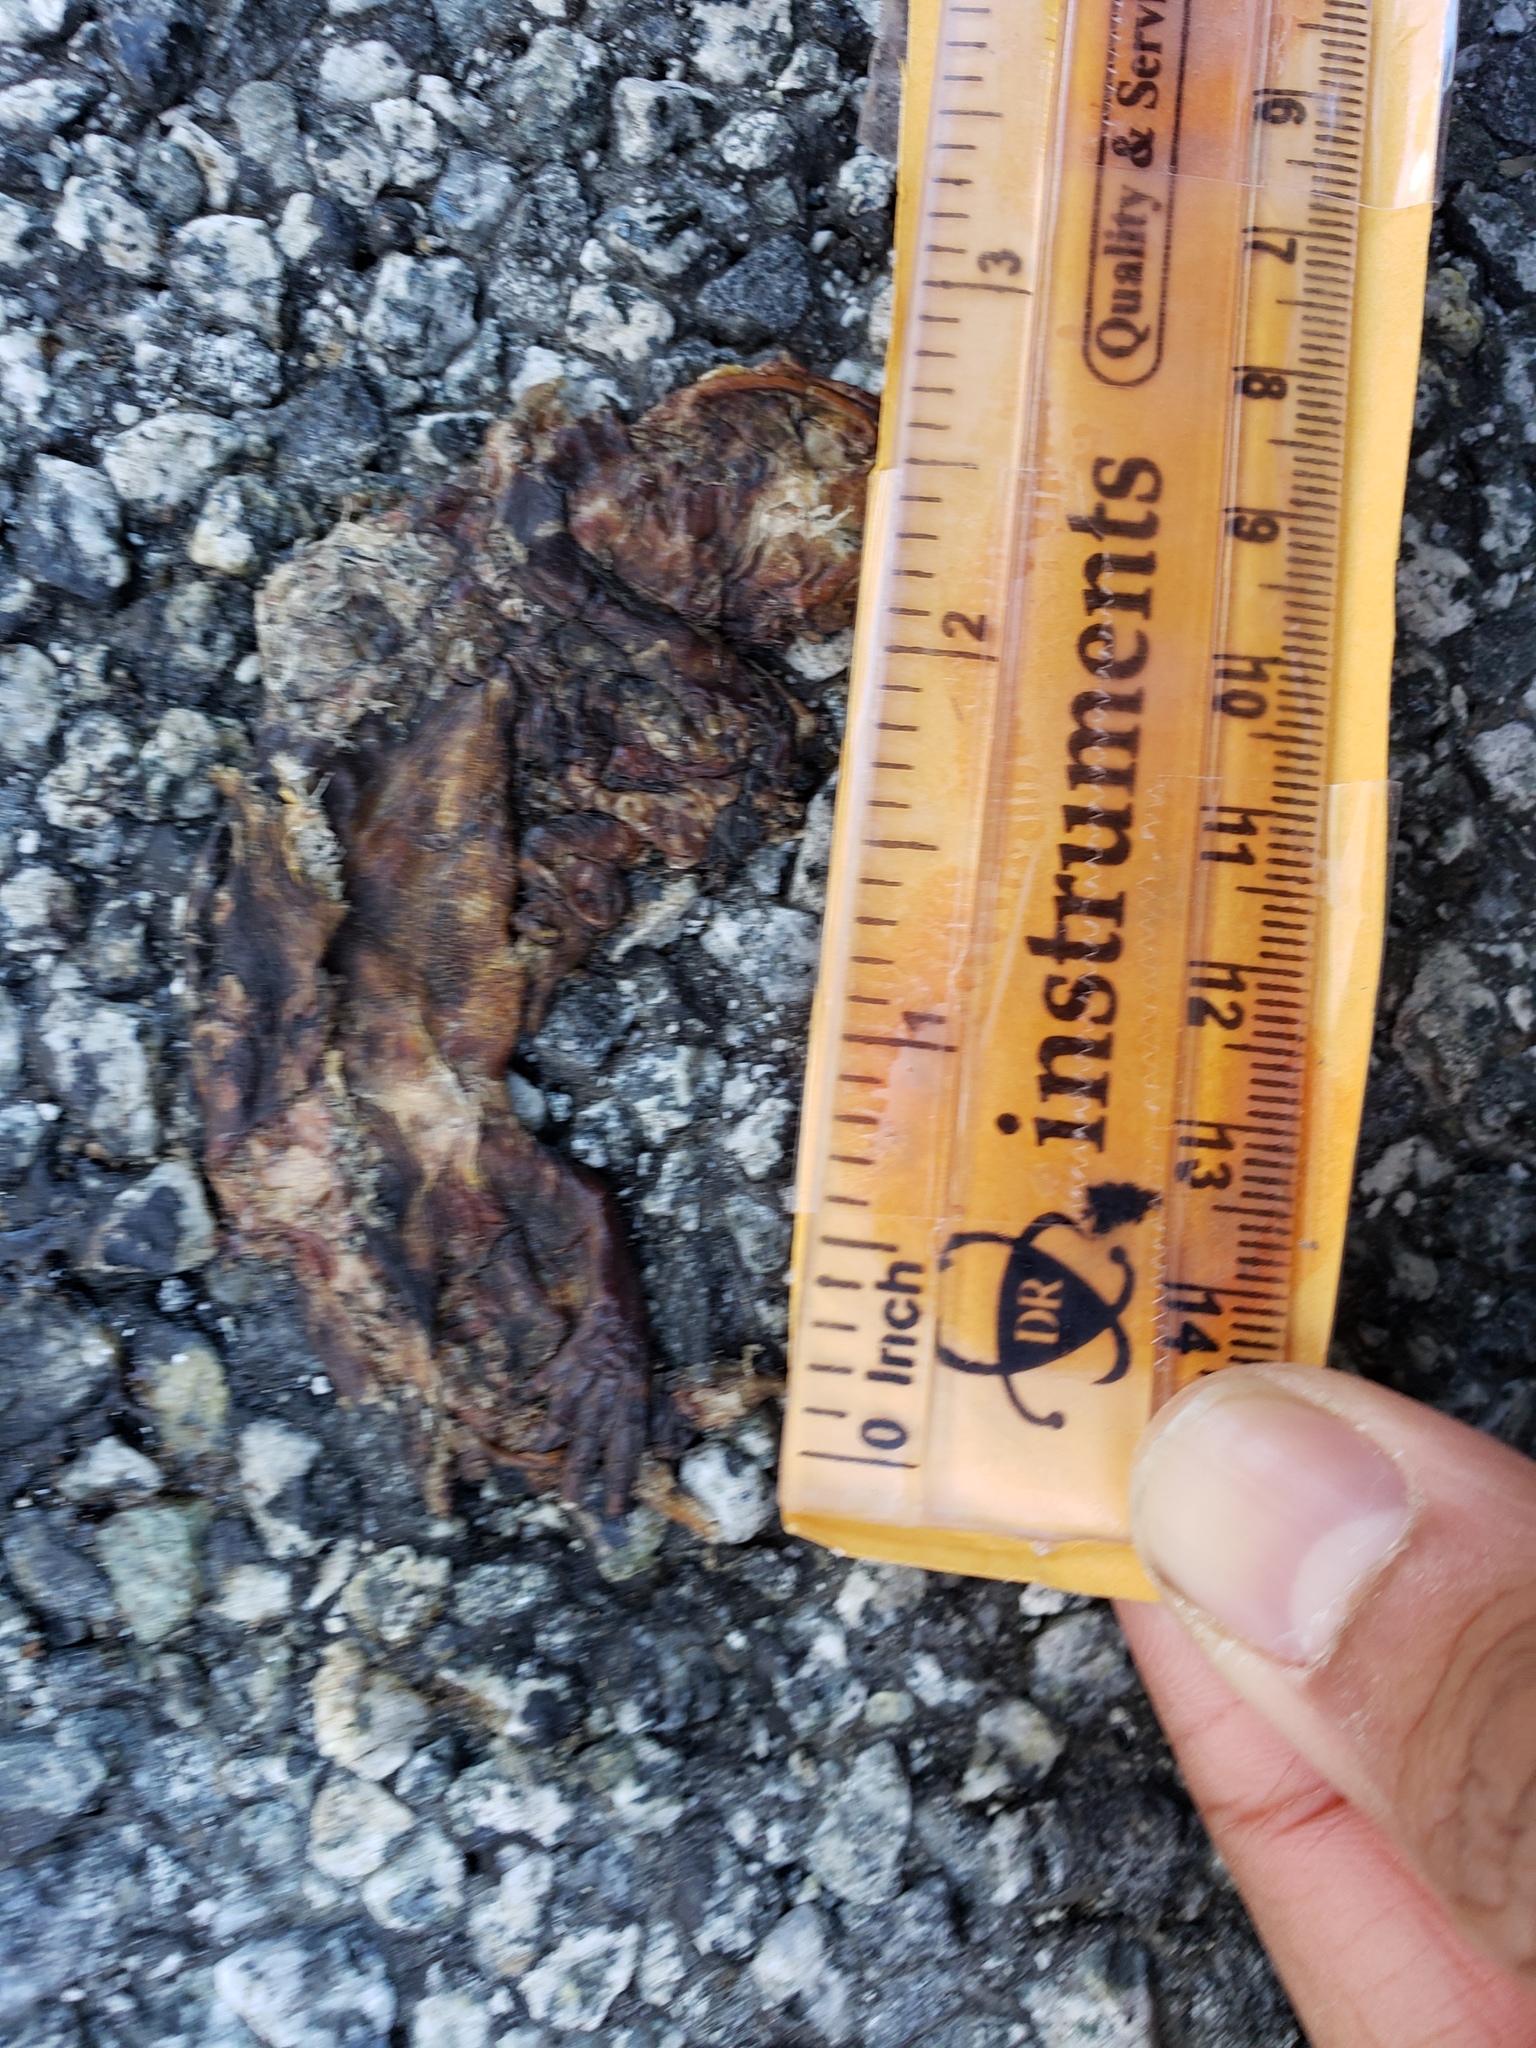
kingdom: Animalia
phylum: Chordata
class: Amphibia
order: Caudata
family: Salamandridae
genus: Taricha
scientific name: Taricha
